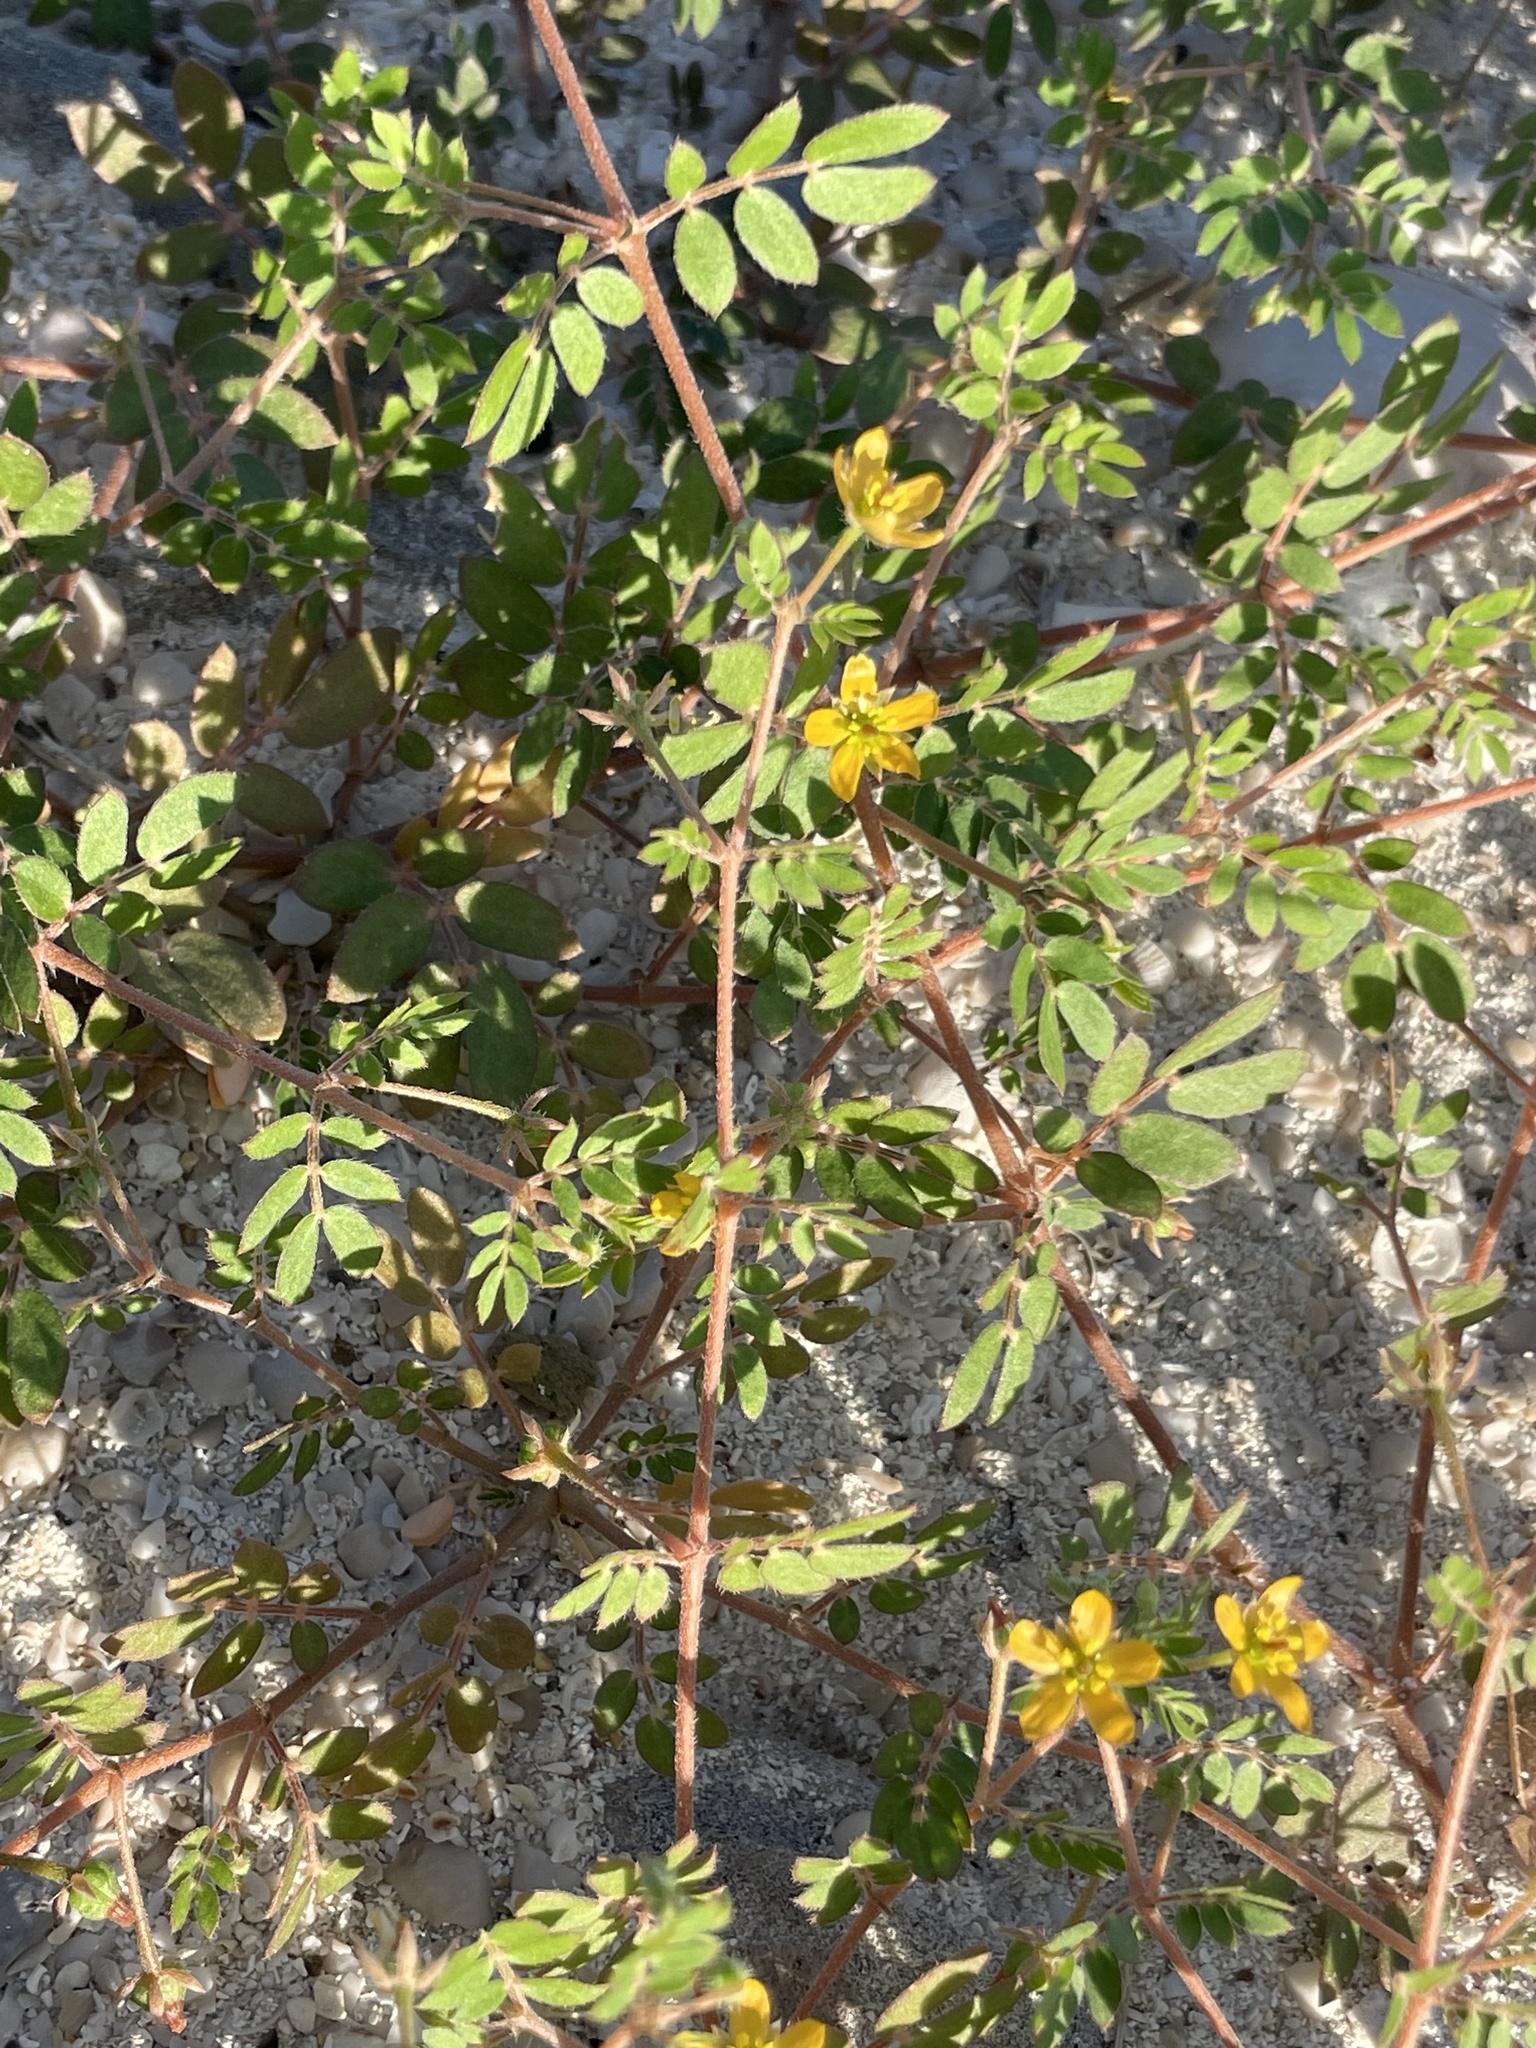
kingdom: Plantae
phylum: Tracheophyta
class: Magnoliopsida
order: Zygophyllales
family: Zygophyllaceae
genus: Kallstroemia
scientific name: Kallstroemia californica
